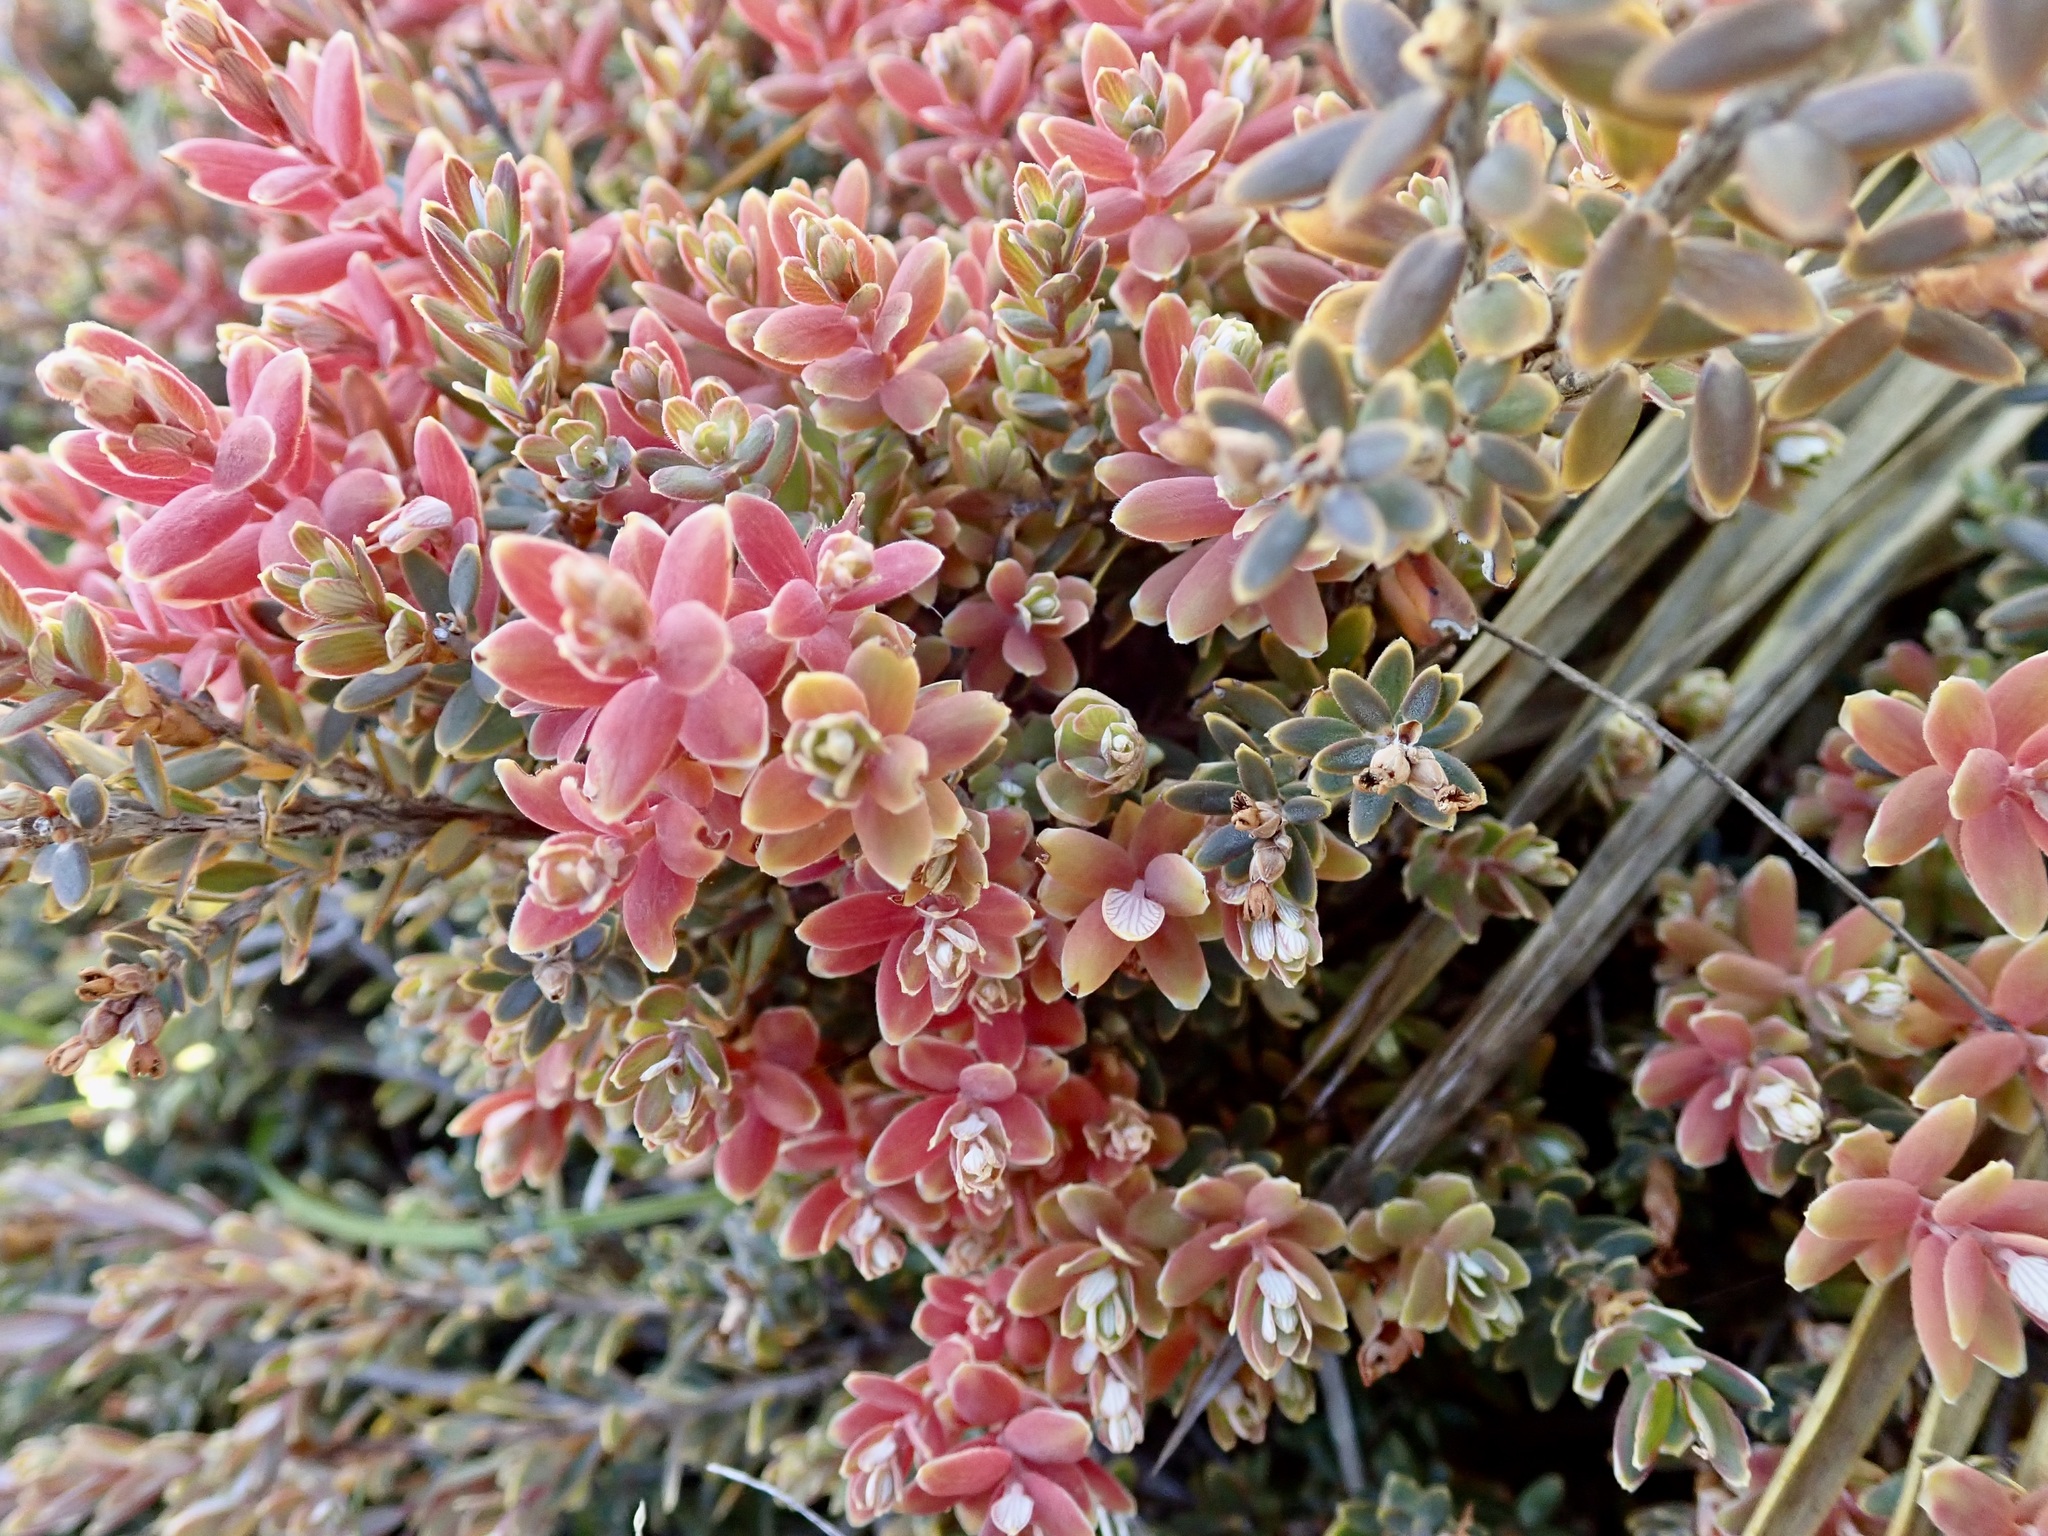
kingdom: Plantae
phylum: Tracheophyta
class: Magnoliopsida
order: Ericales
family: Ericaceae
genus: Acrothamnus
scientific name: Acrothamnus colensoi
